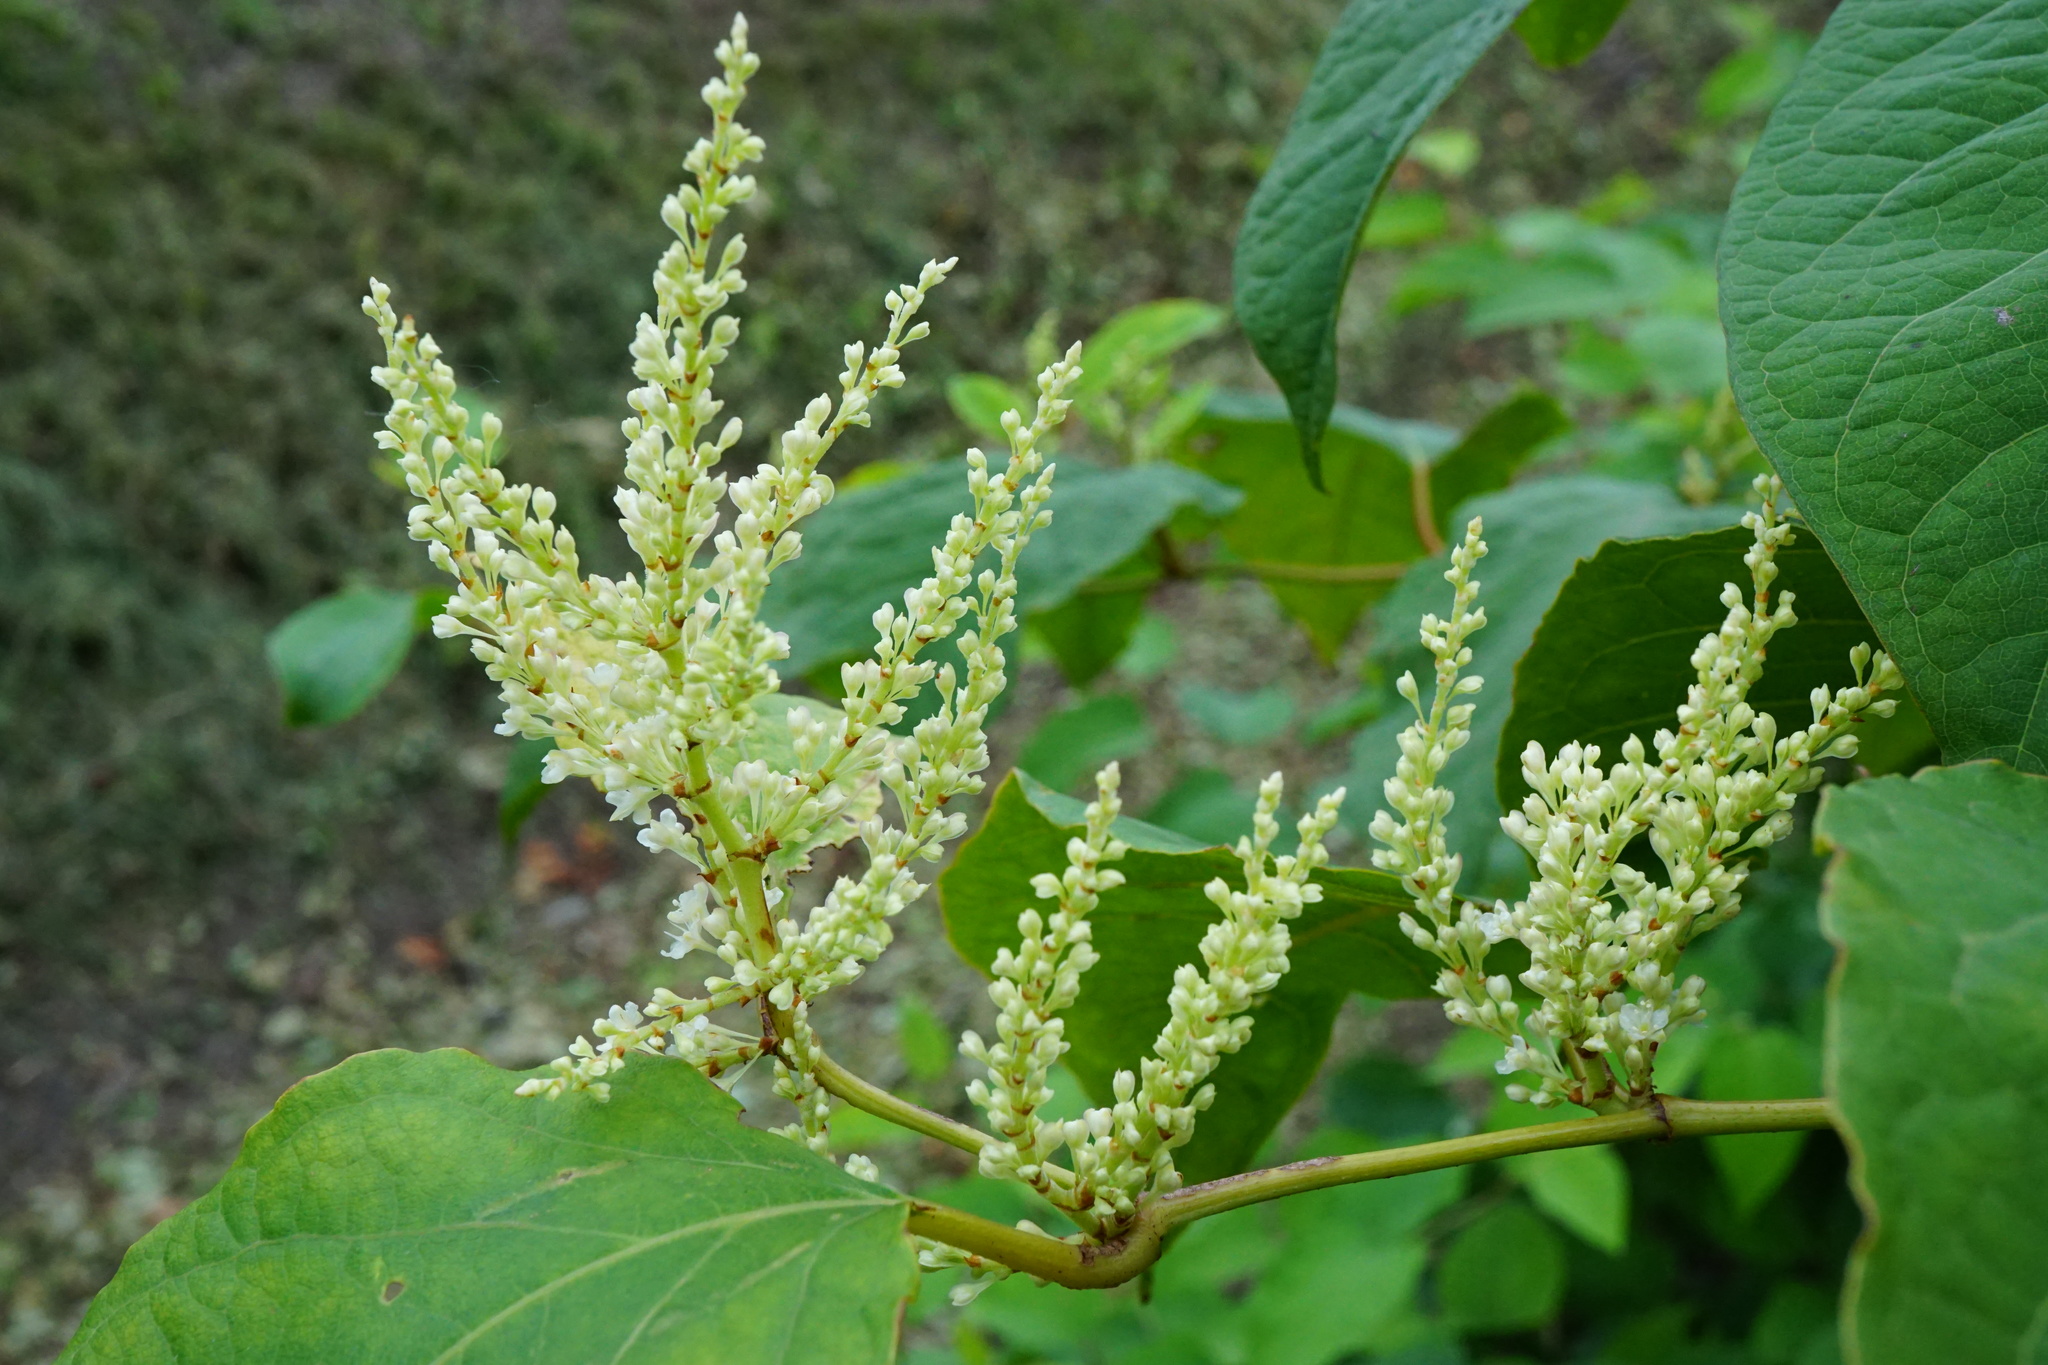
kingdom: Plantae
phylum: Tracheophyta
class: Magnoliopsida
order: Caryophyllales
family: Polygonaceae
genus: Reynoutria
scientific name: Reynoutria bohemica
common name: Bohemian knotweed
